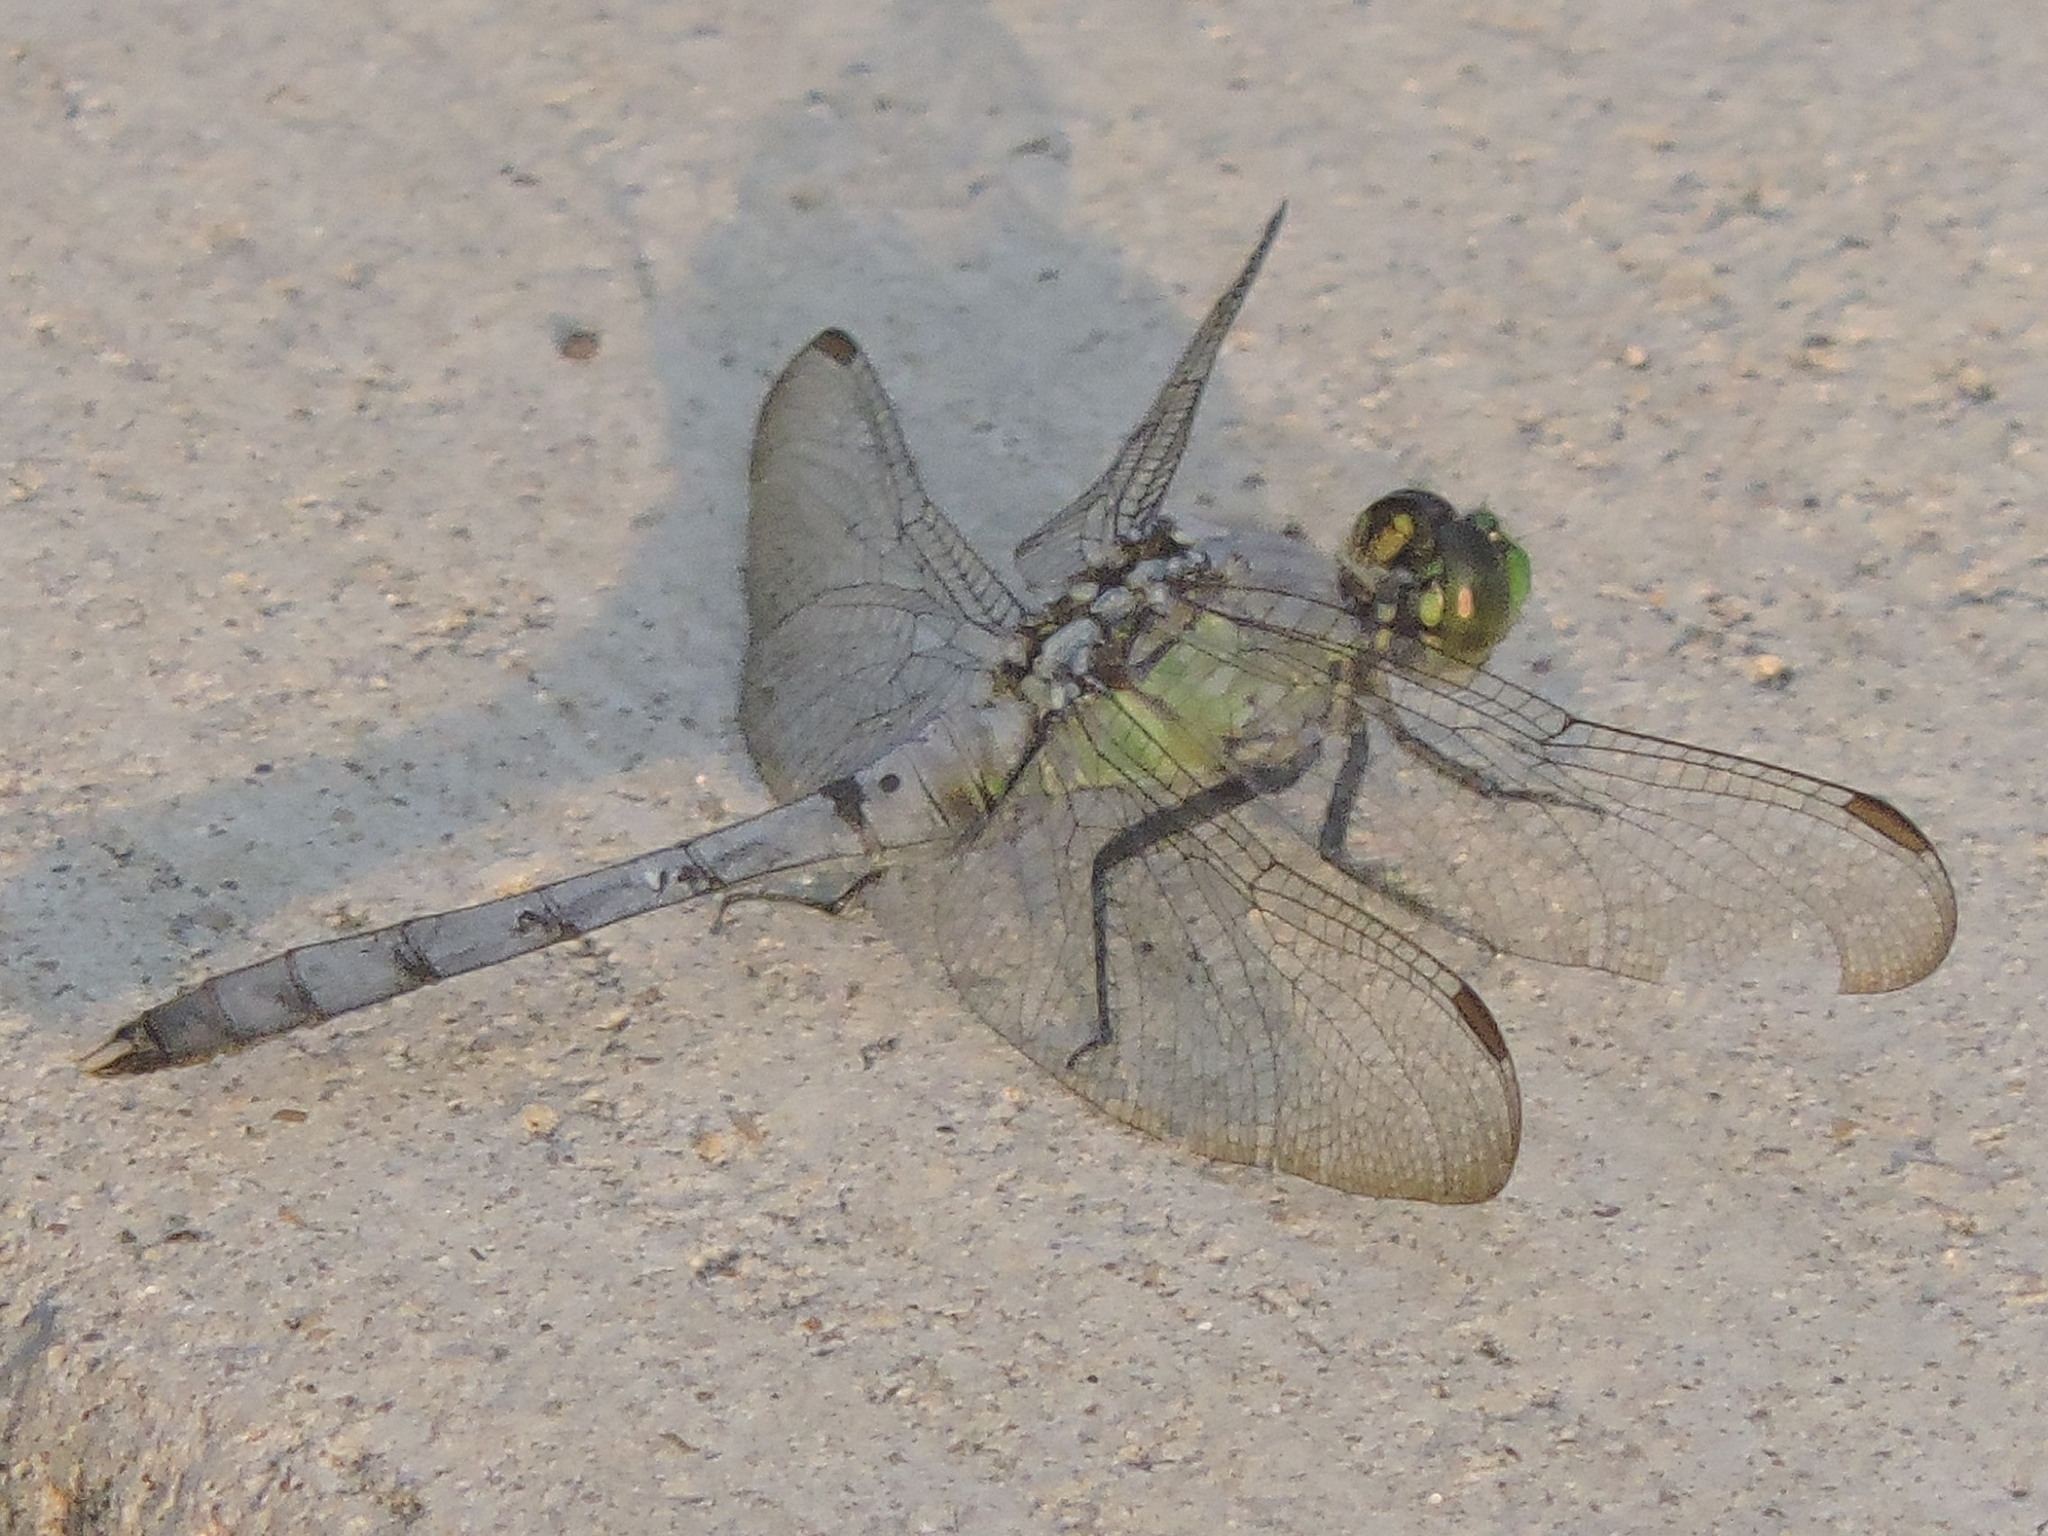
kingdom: Animalia
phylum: Arthropoda
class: Insecta
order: Odonata
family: Libellulidae
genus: Erythemis
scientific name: Erythemis simplicicollis
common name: Eastern pondhawk
